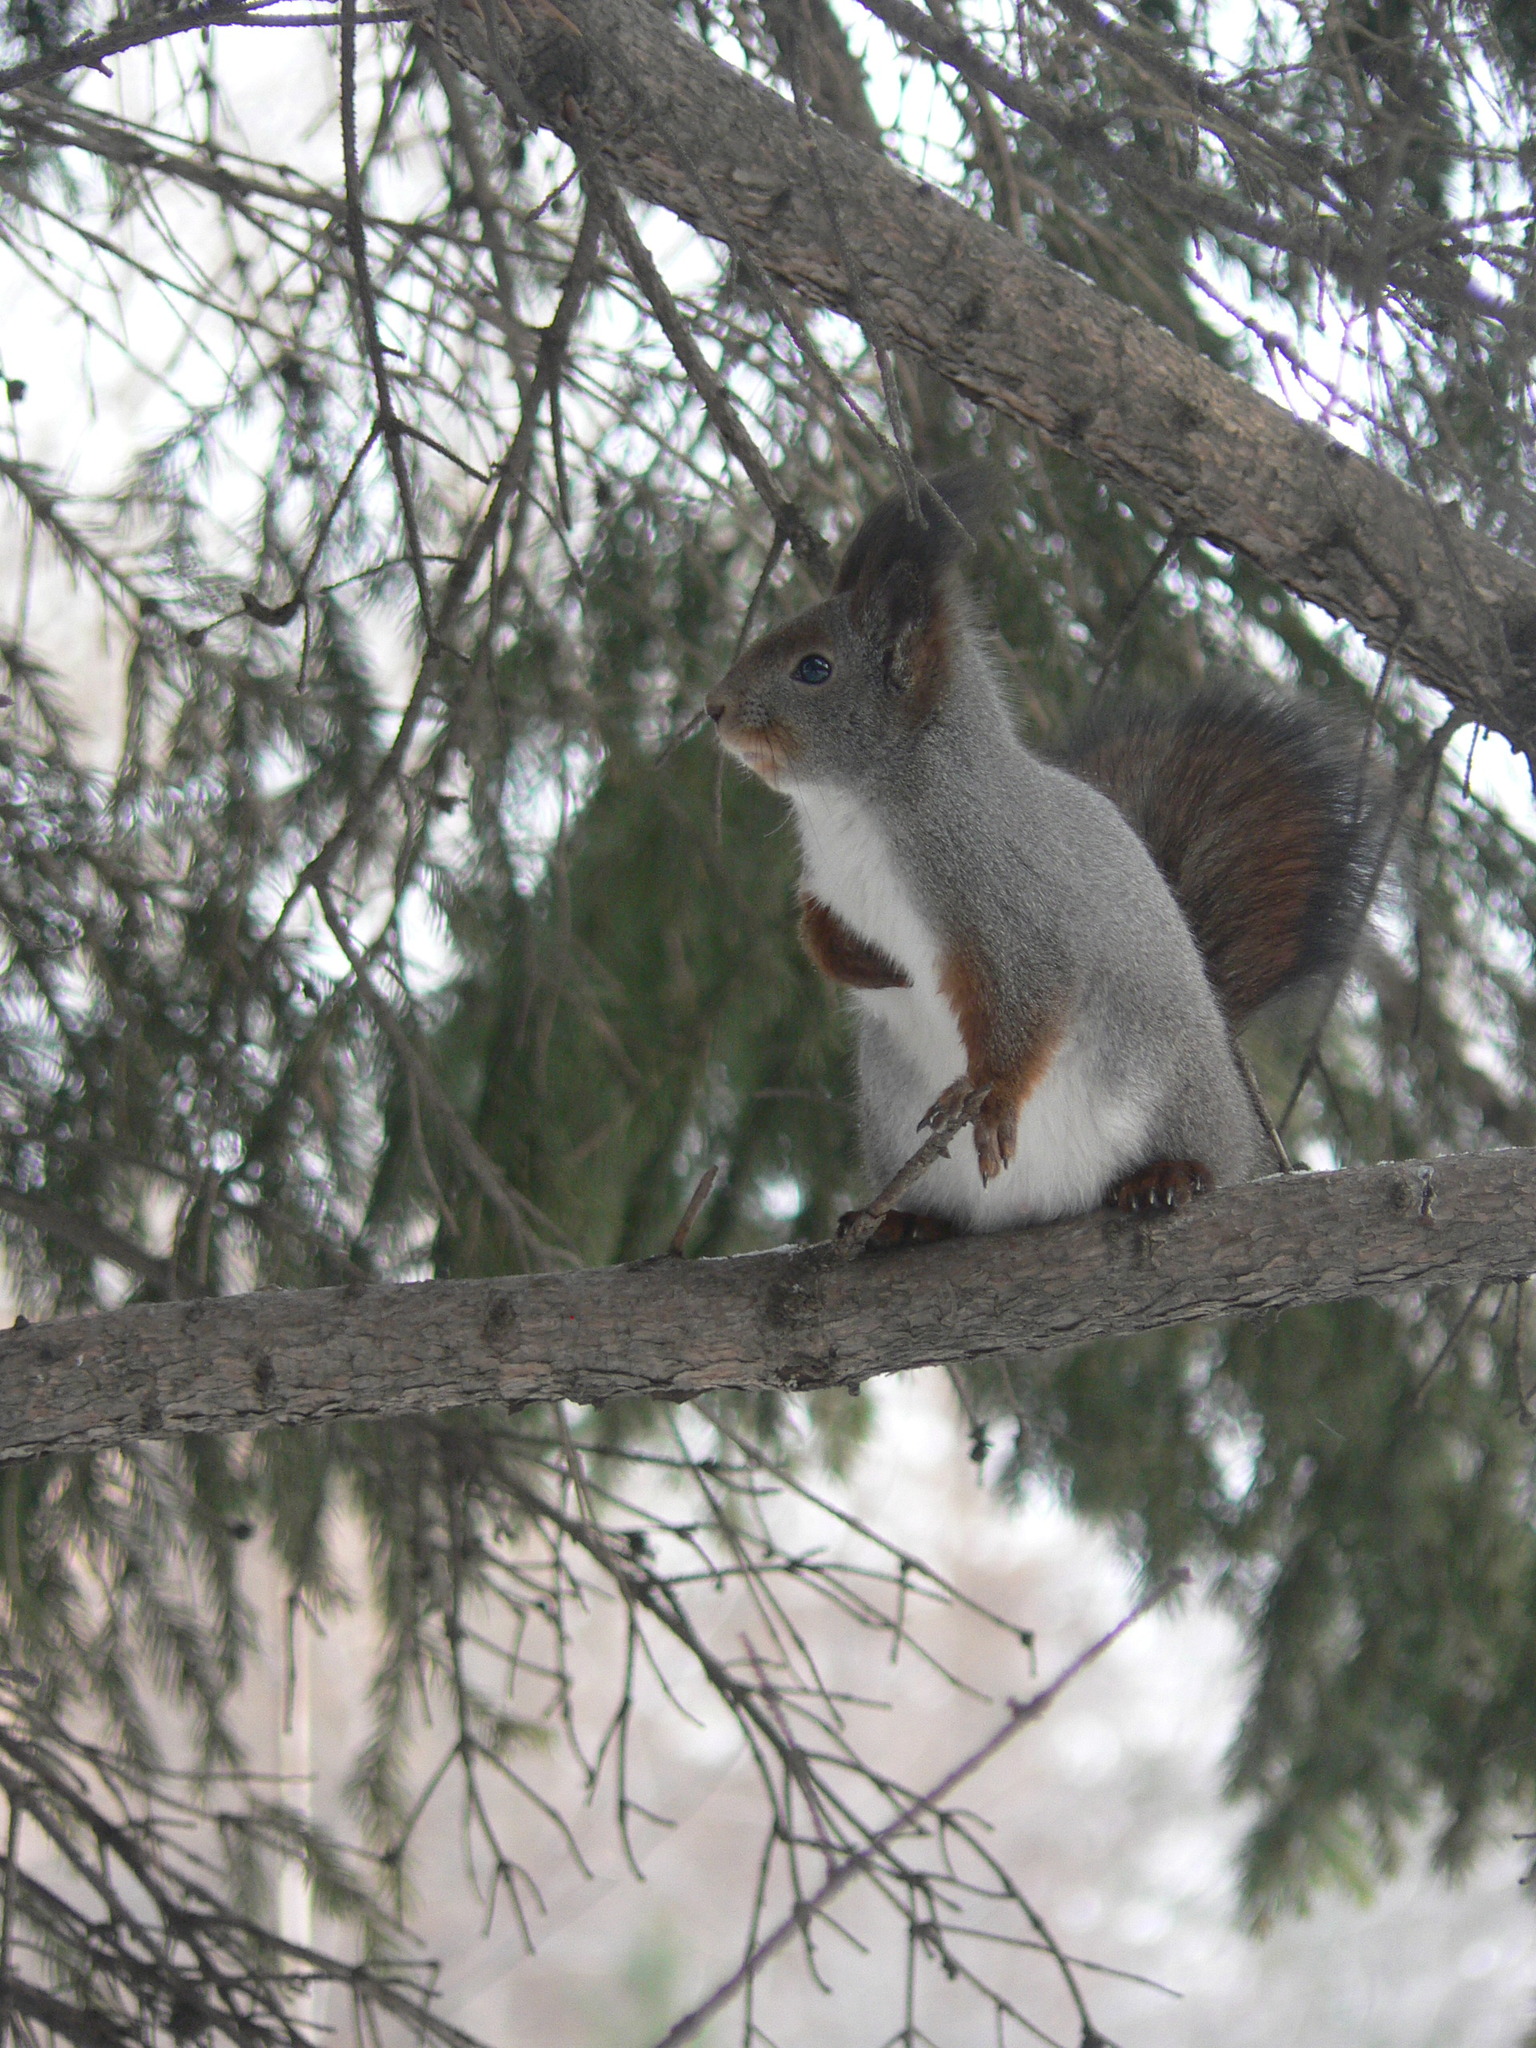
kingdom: Animalia
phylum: Chordata
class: Mammalia
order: Rodentia
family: Sciuridae
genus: Sciurus
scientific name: Sciurus vulgaris
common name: Eurasian red squirrel
